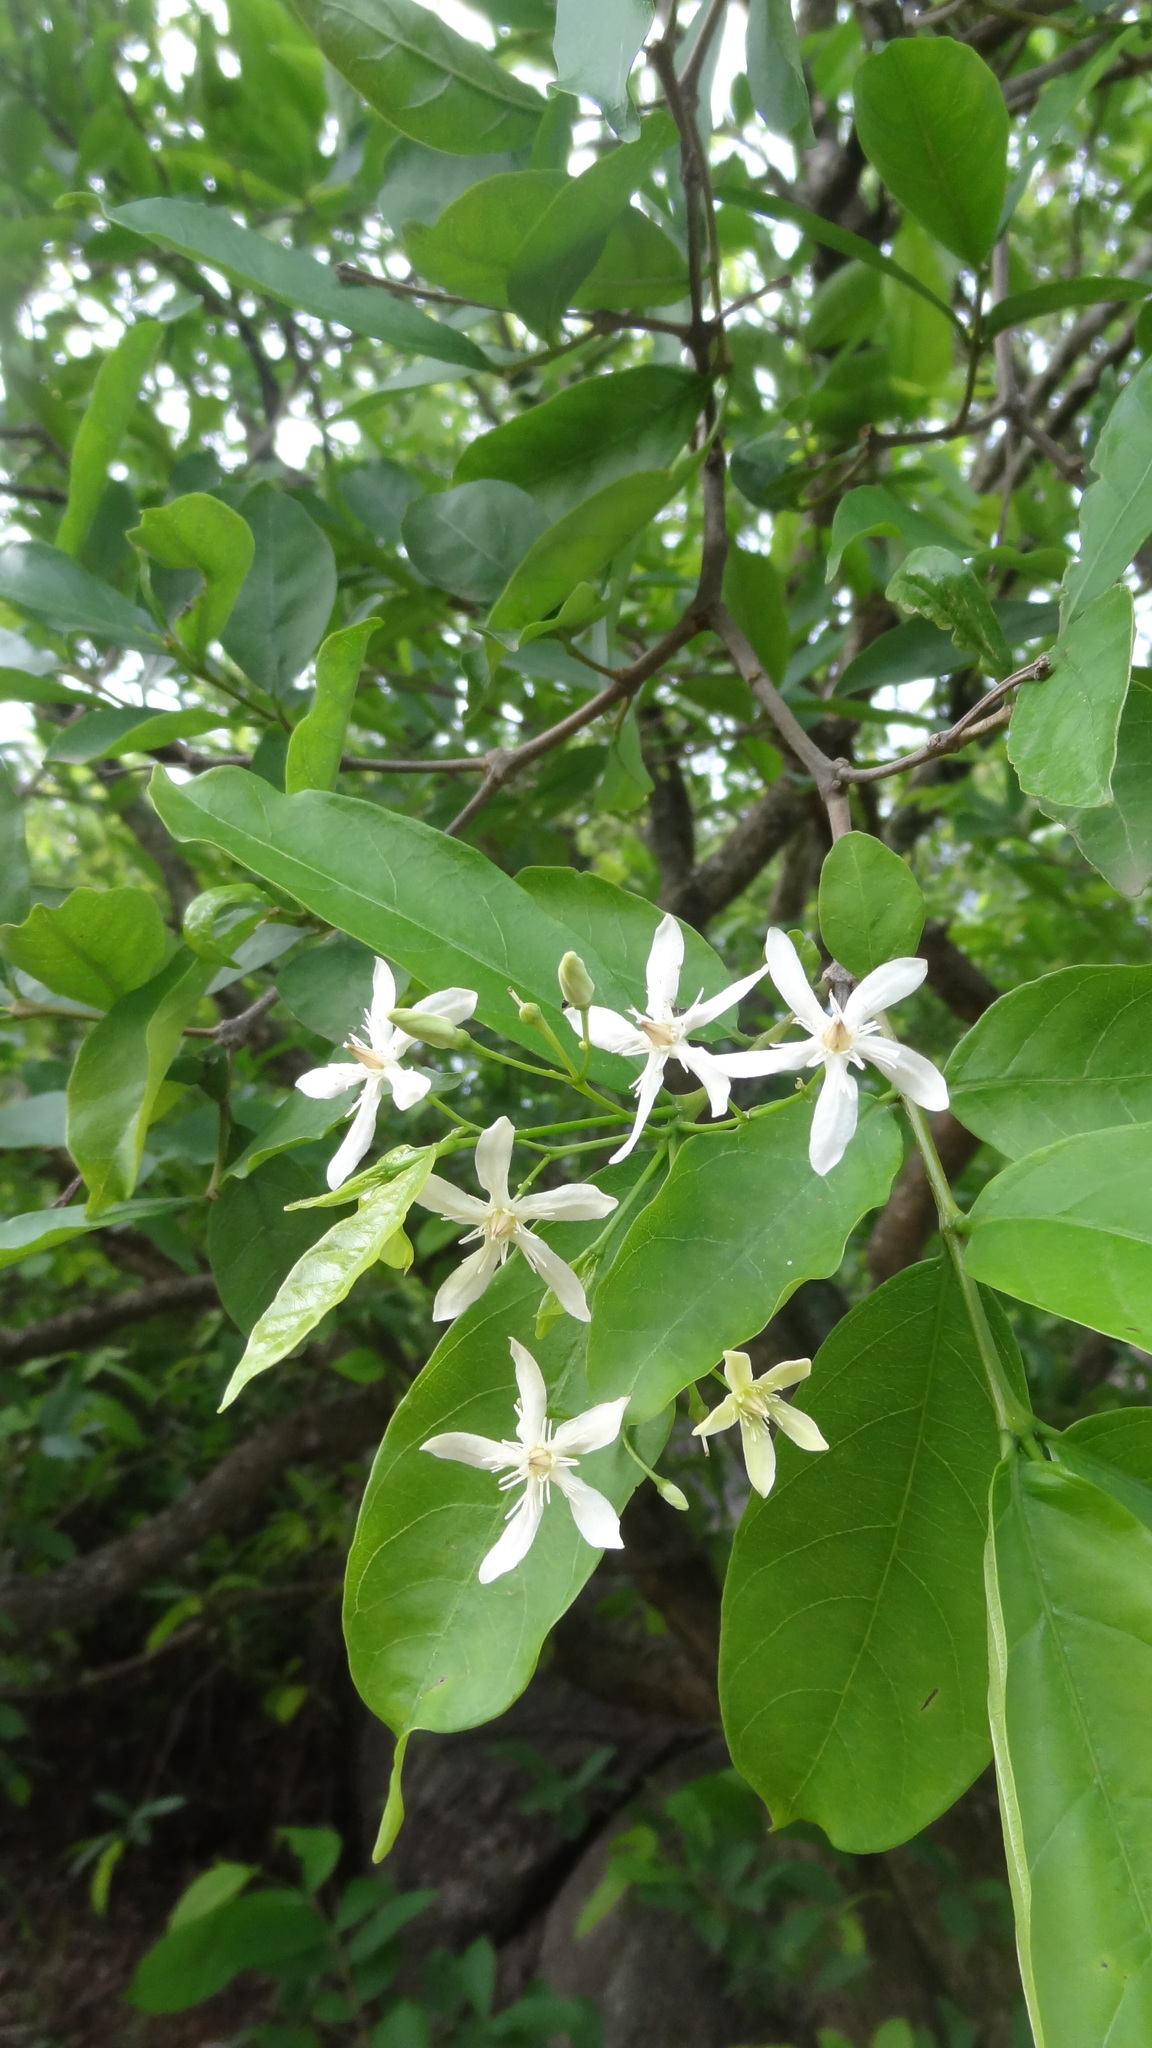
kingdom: Plantae
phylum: Tracheophyta
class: Magnoliopsida
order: Gentianales
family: Apocynaceae
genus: Wrightia
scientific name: Wrightia tinctoria
